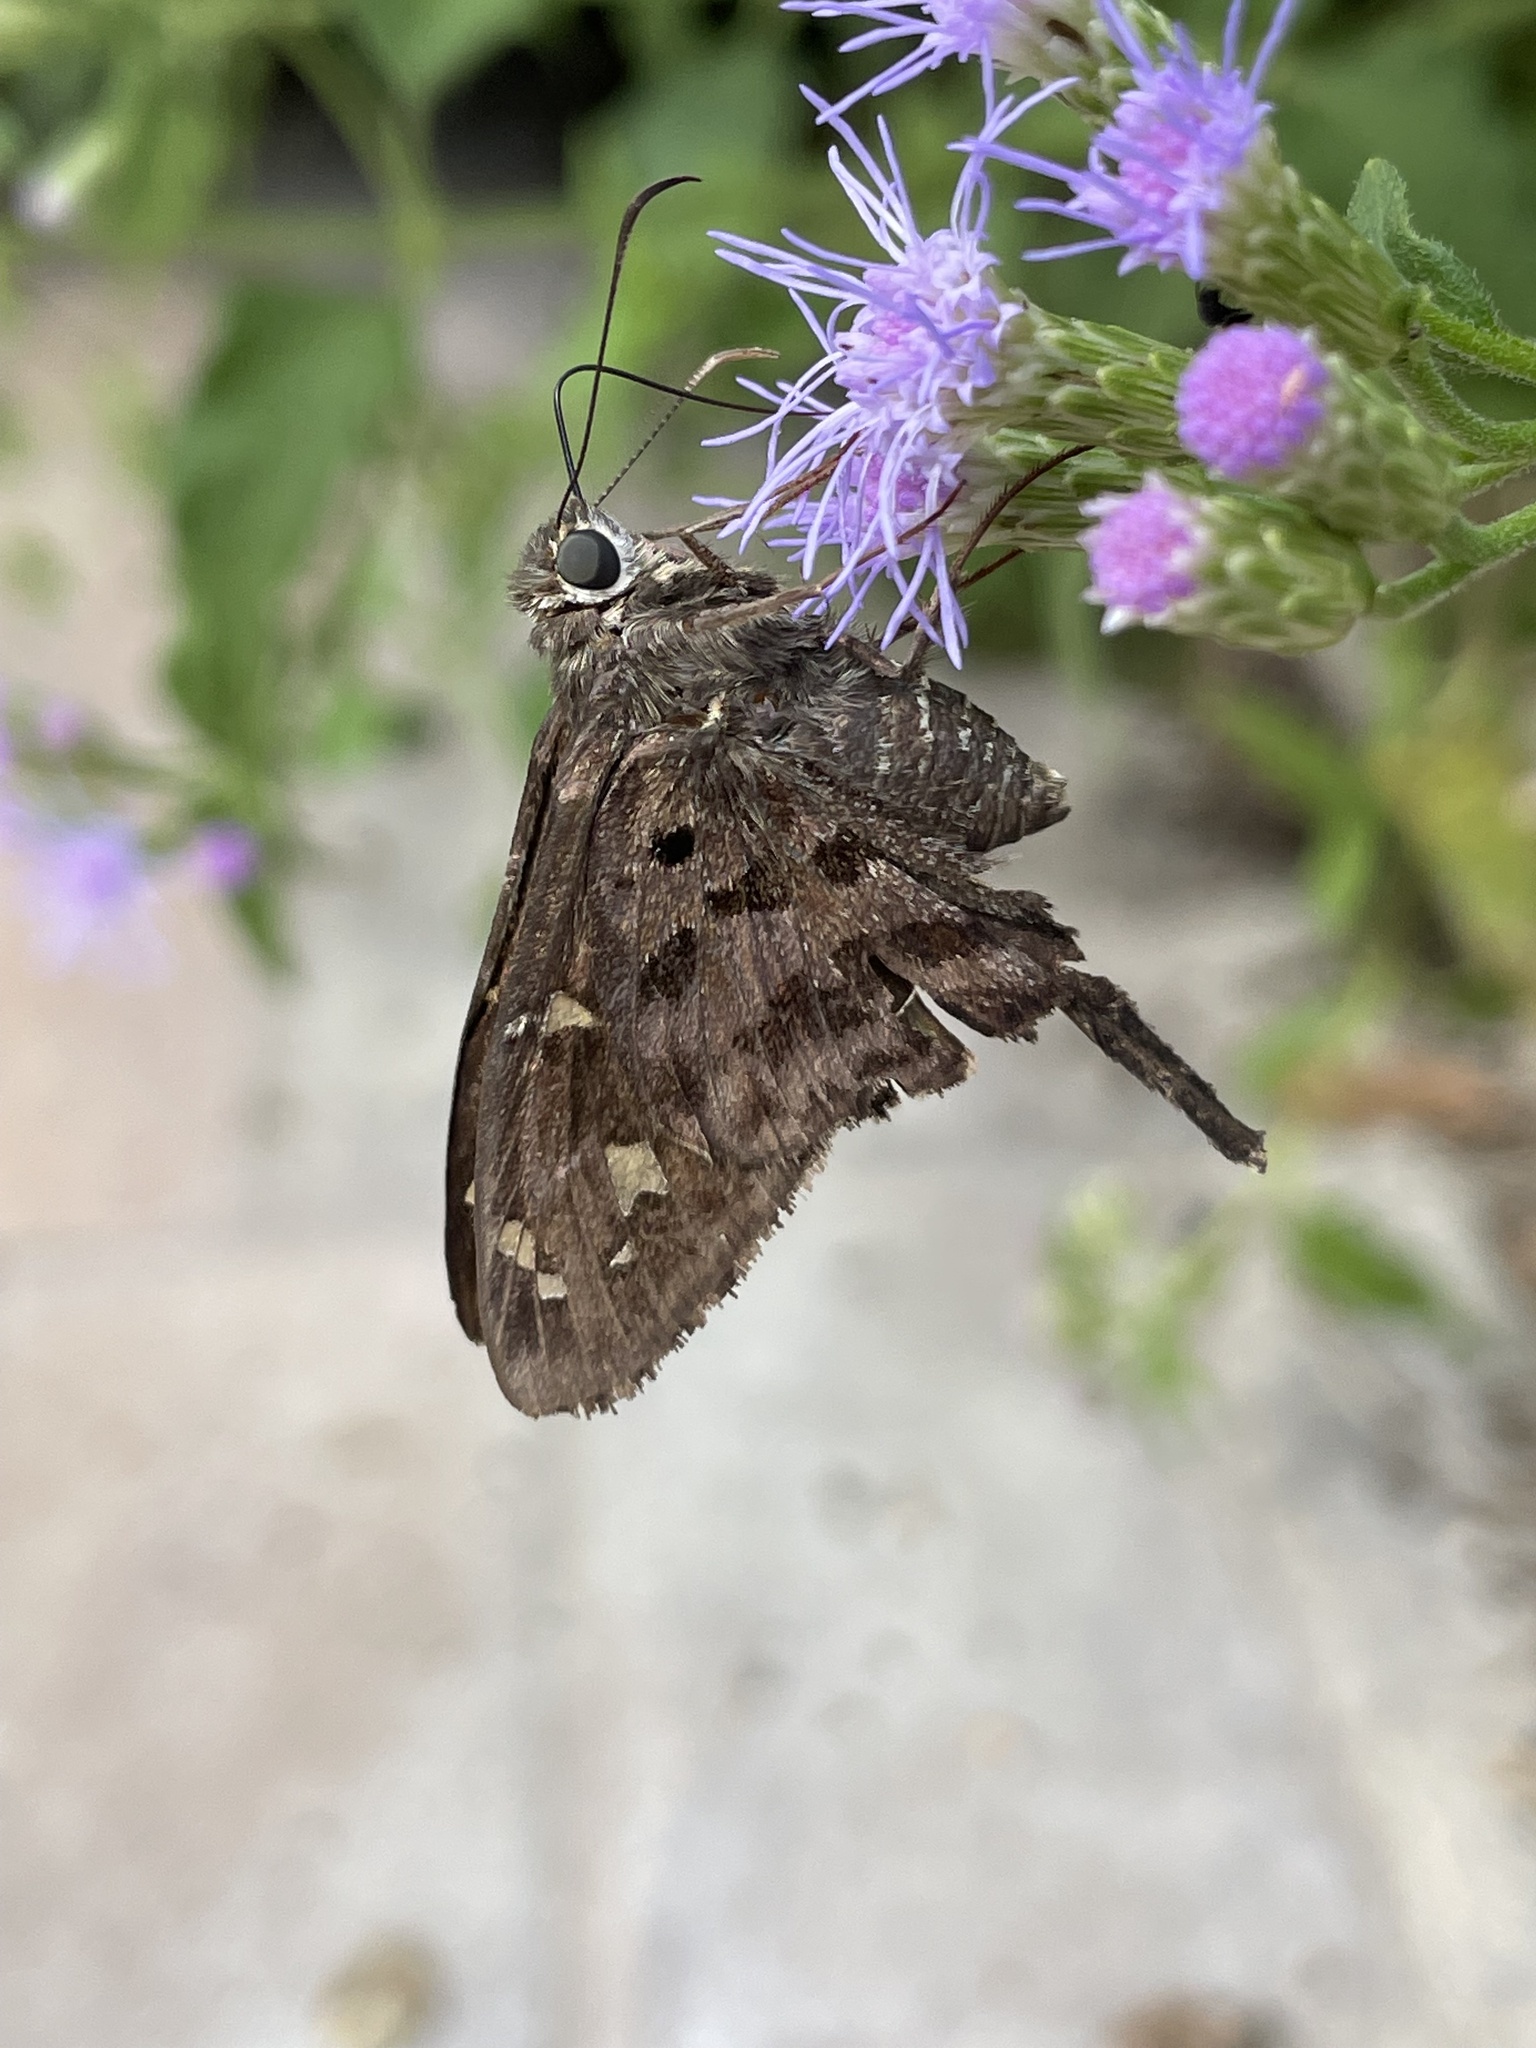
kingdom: Animalia
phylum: Arthropoda
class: Insecta
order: Lepidoptera
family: Hesperiidae
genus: Thorybes
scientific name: Thorybes
